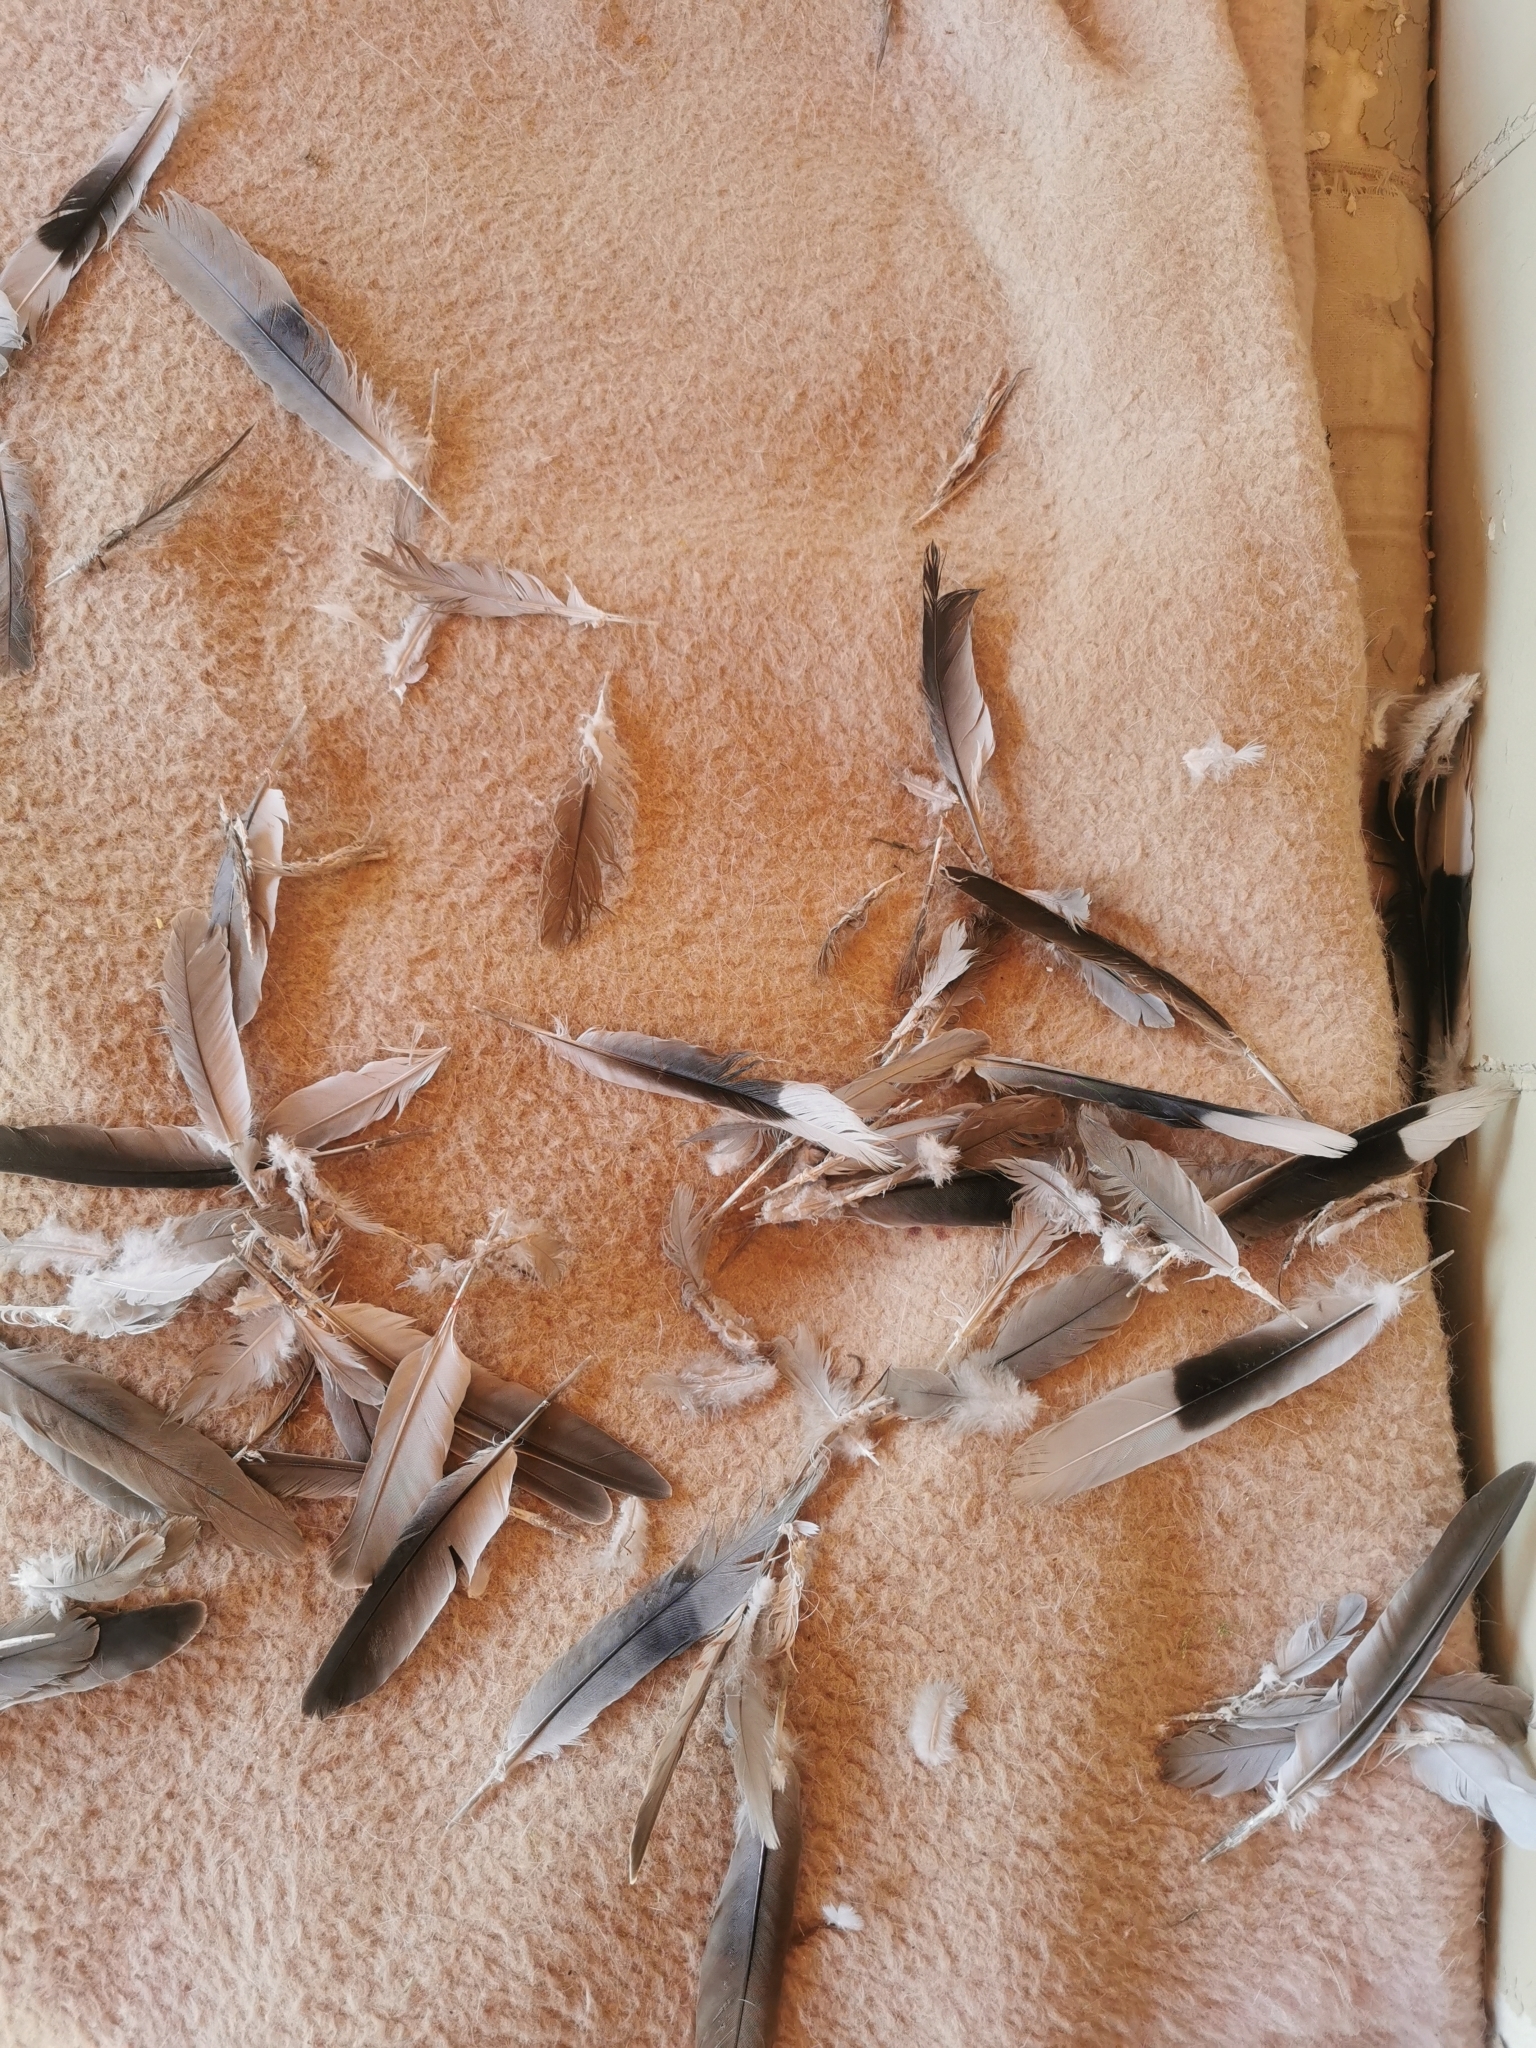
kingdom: Animalia
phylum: Chordata
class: Aves
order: Columbiformes
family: Columbidae
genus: Streptopelia
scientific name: Streptopelia decaocto
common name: Eurasian collared dove
